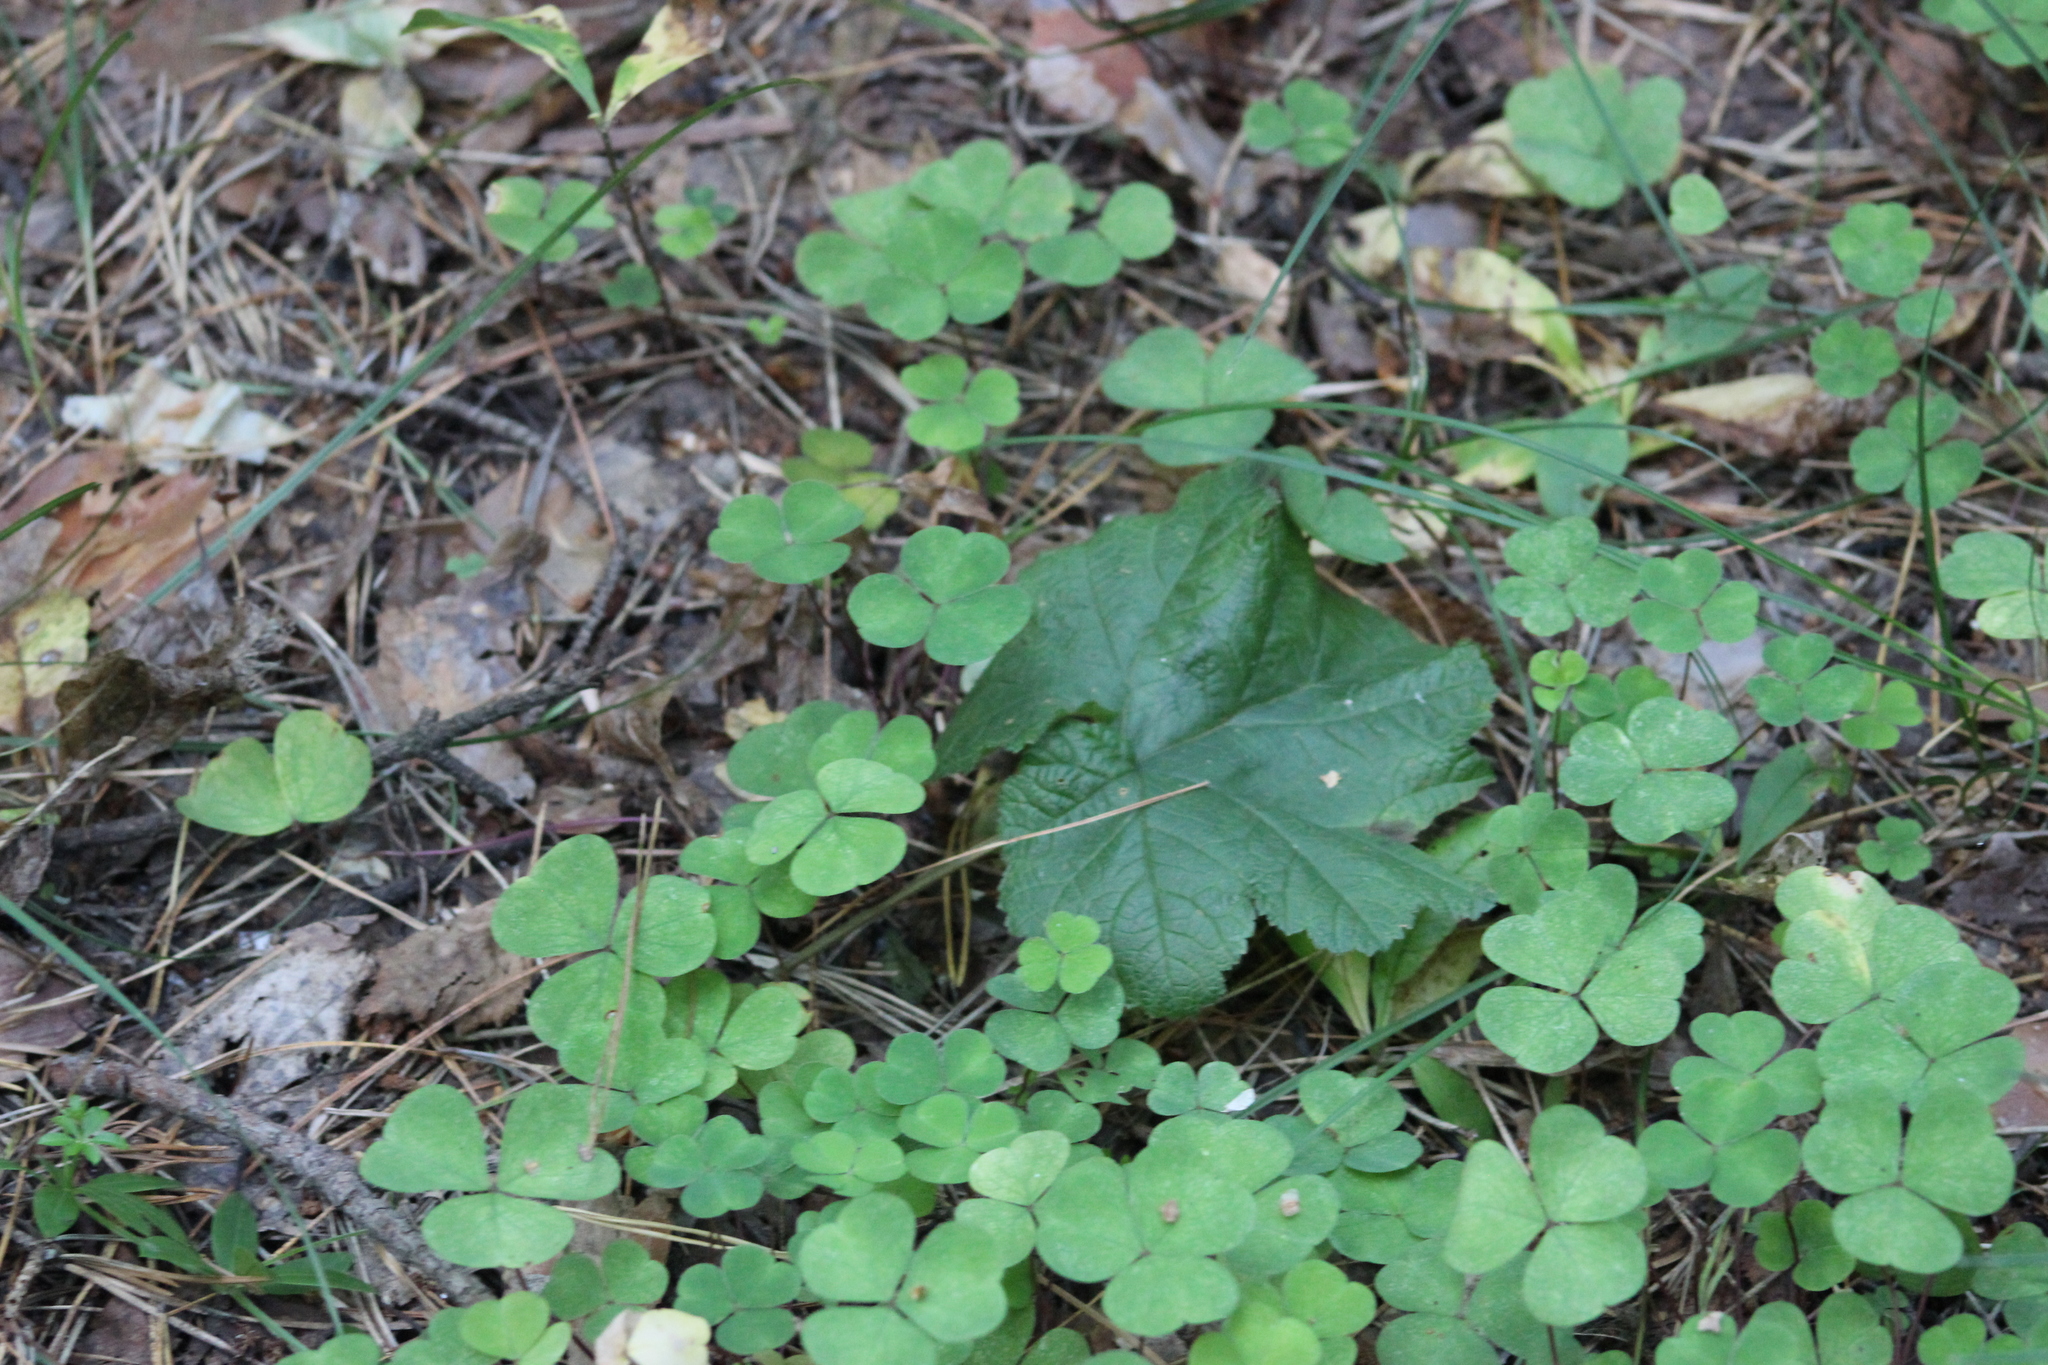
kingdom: Plantae
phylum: Tracheophyta
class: Magnoliopsida
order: Rosales
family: Rosaceae
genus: Rubus
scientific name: Rubus chamaemorus
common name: Cloudberry
